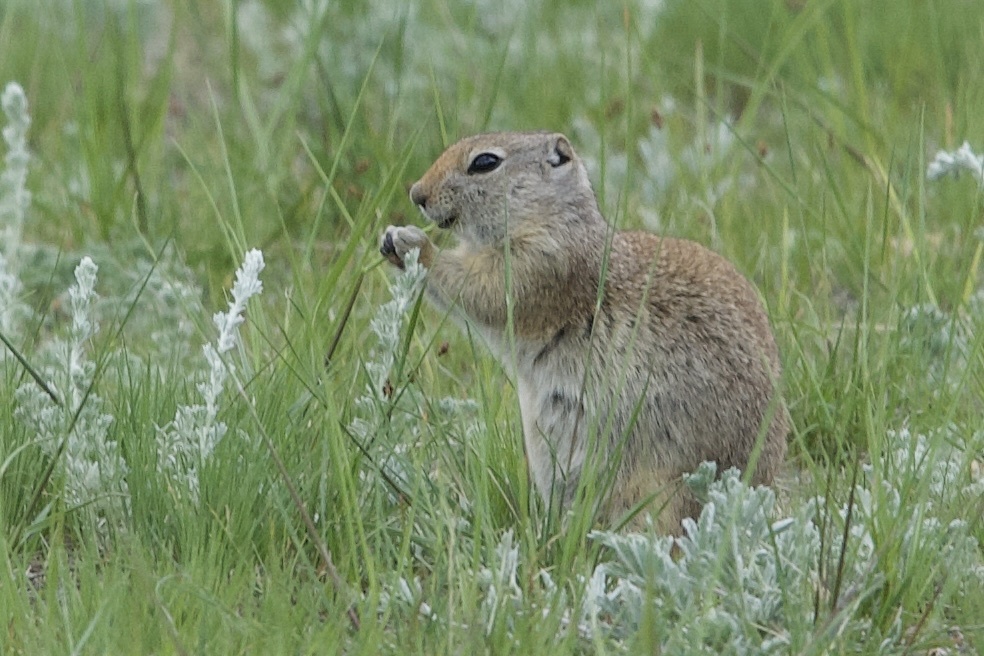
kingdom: Animalia
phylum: Chordata
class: Mammalia
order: Rodentia
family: Sciuridae
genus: Urocitellus
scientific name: Urocitellus elegans
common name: Wyoming ground squirrel
